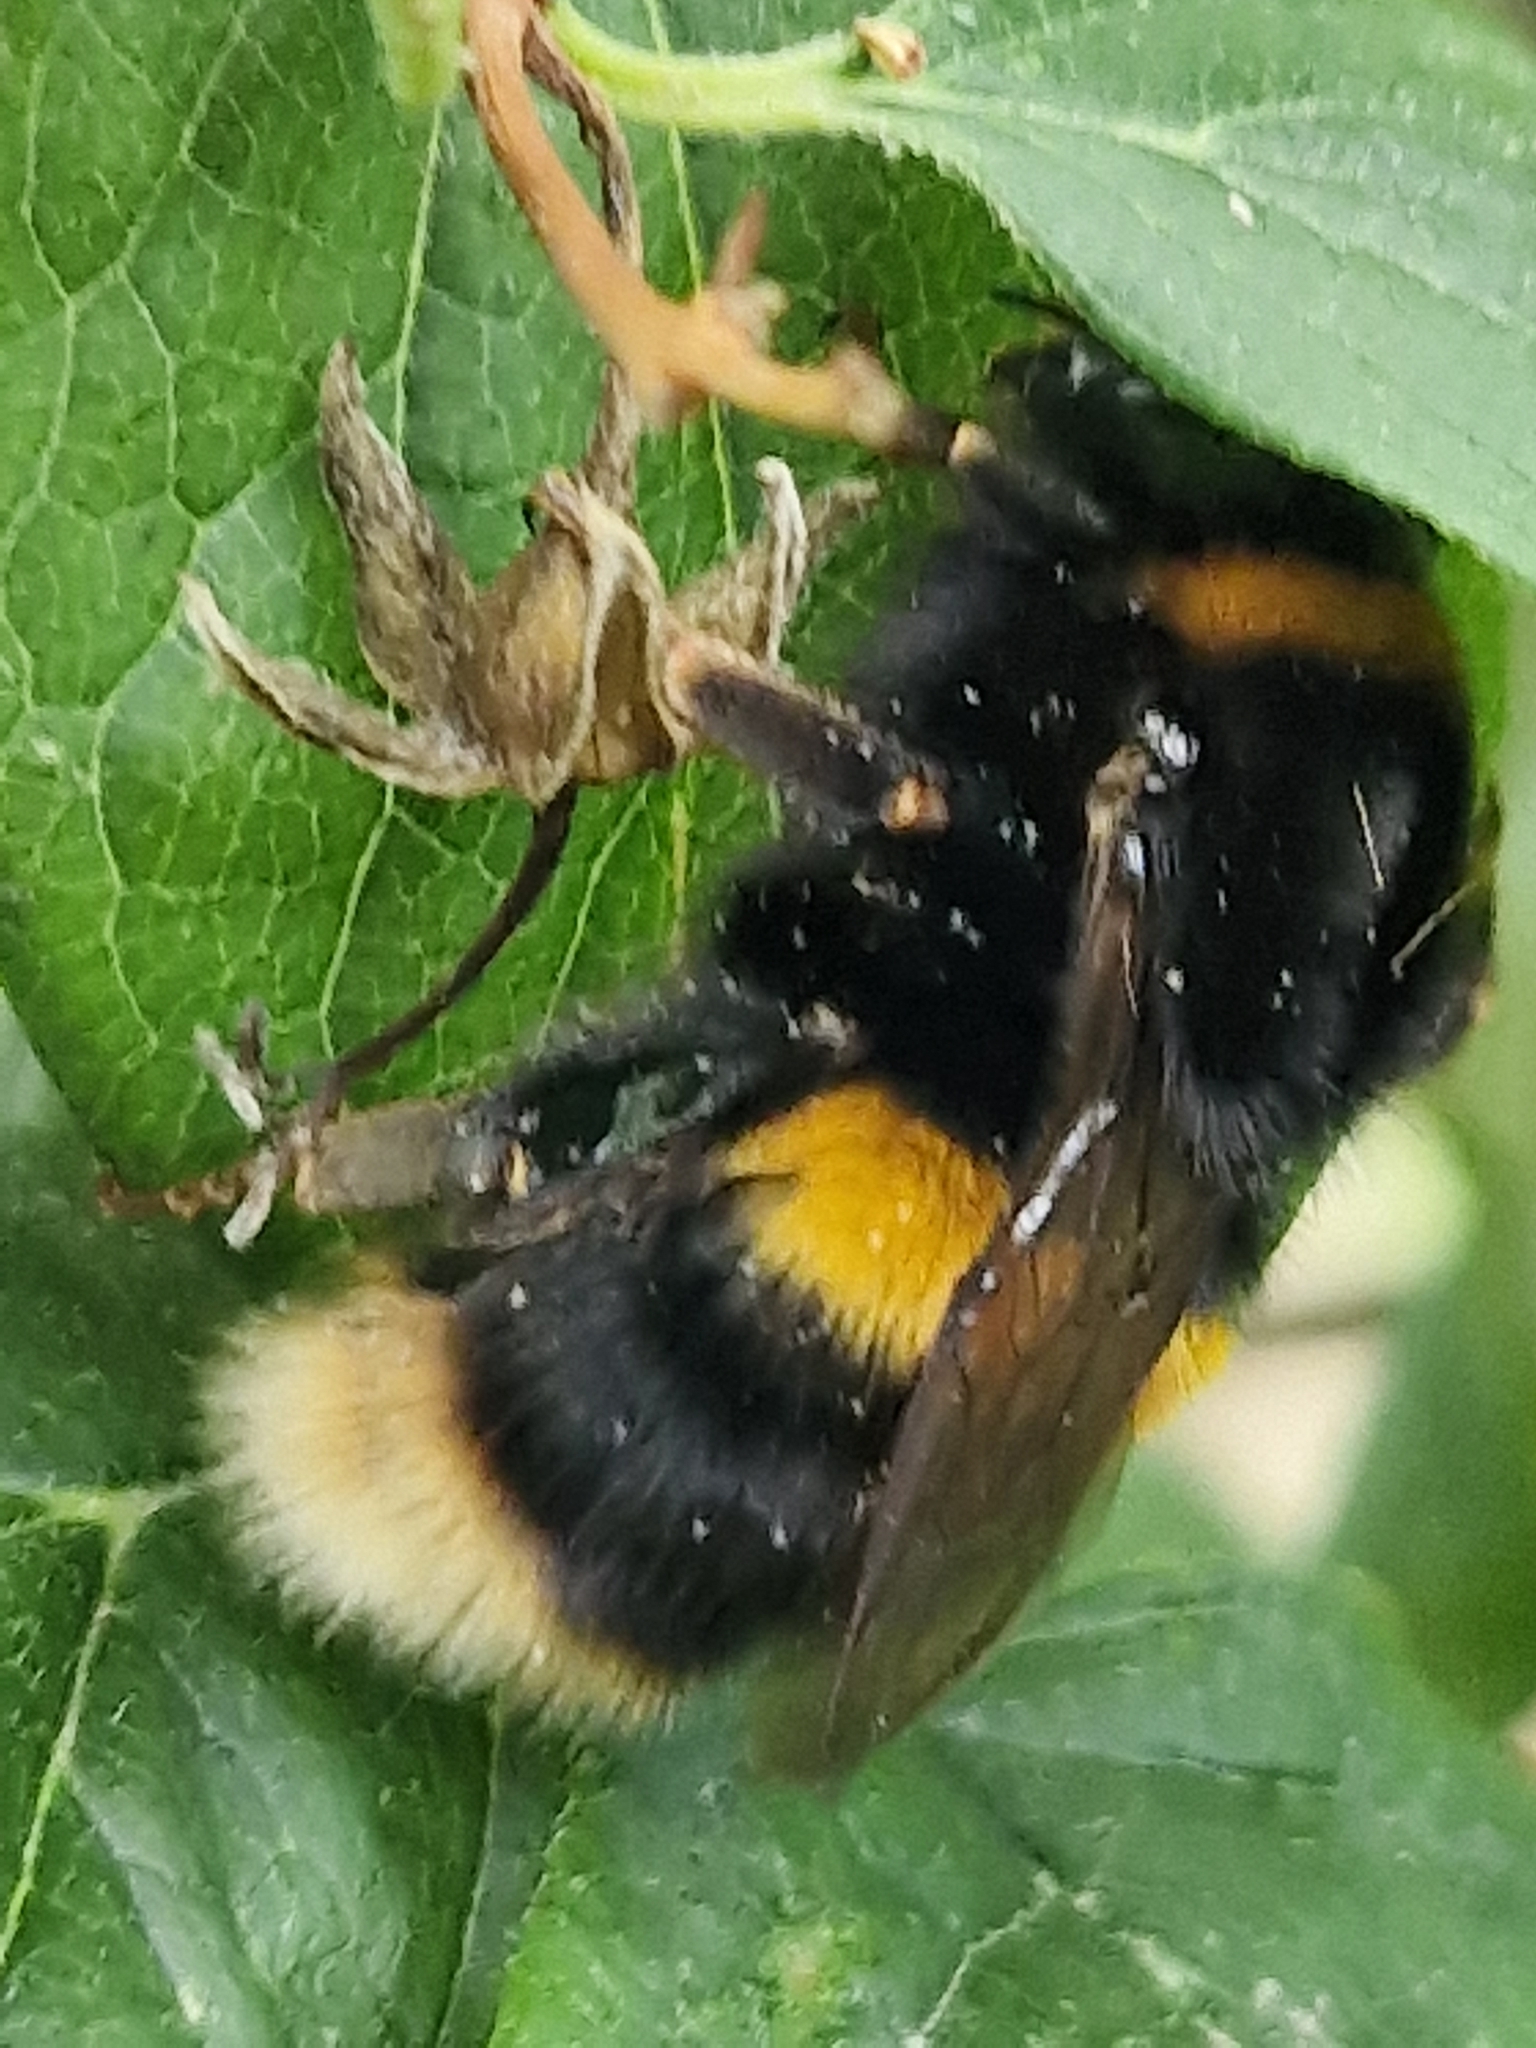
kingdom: Animalia
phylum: Arthropoda
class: Insecta
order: Hymenoptera
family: Apidae
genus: Bombus
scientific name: Bombus terrestris
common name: Buff-tailed bumblebee
